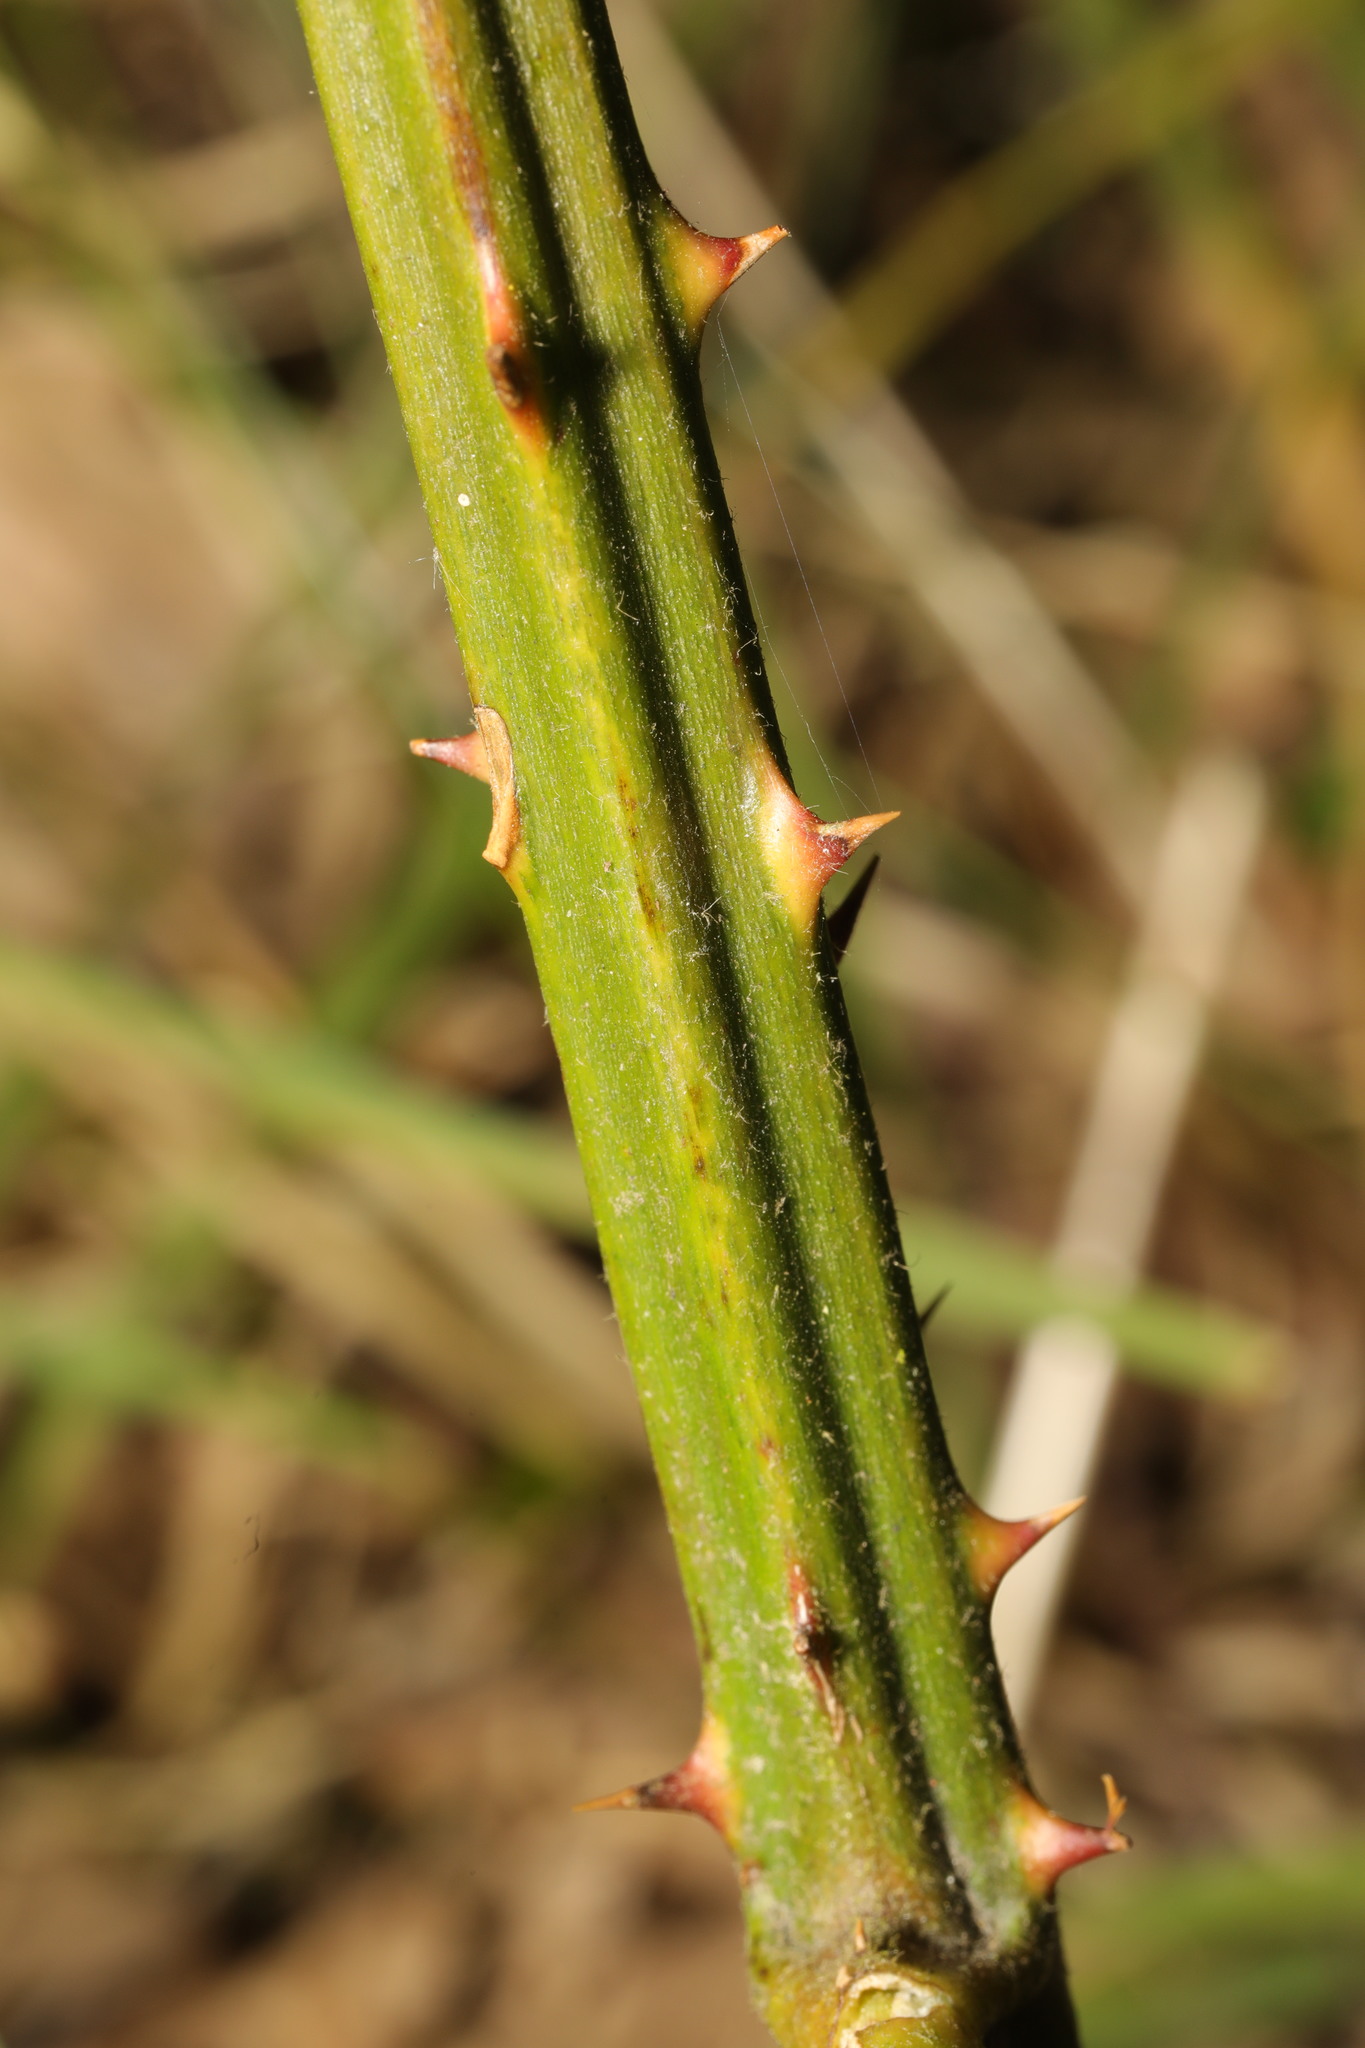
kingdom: Plantae
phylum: Tracheophyta
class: Magnoliopsida
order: Rosales
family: Rosaceae
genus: Rubus
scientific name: Rubus armeniacus
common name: Himalayan blackberry
